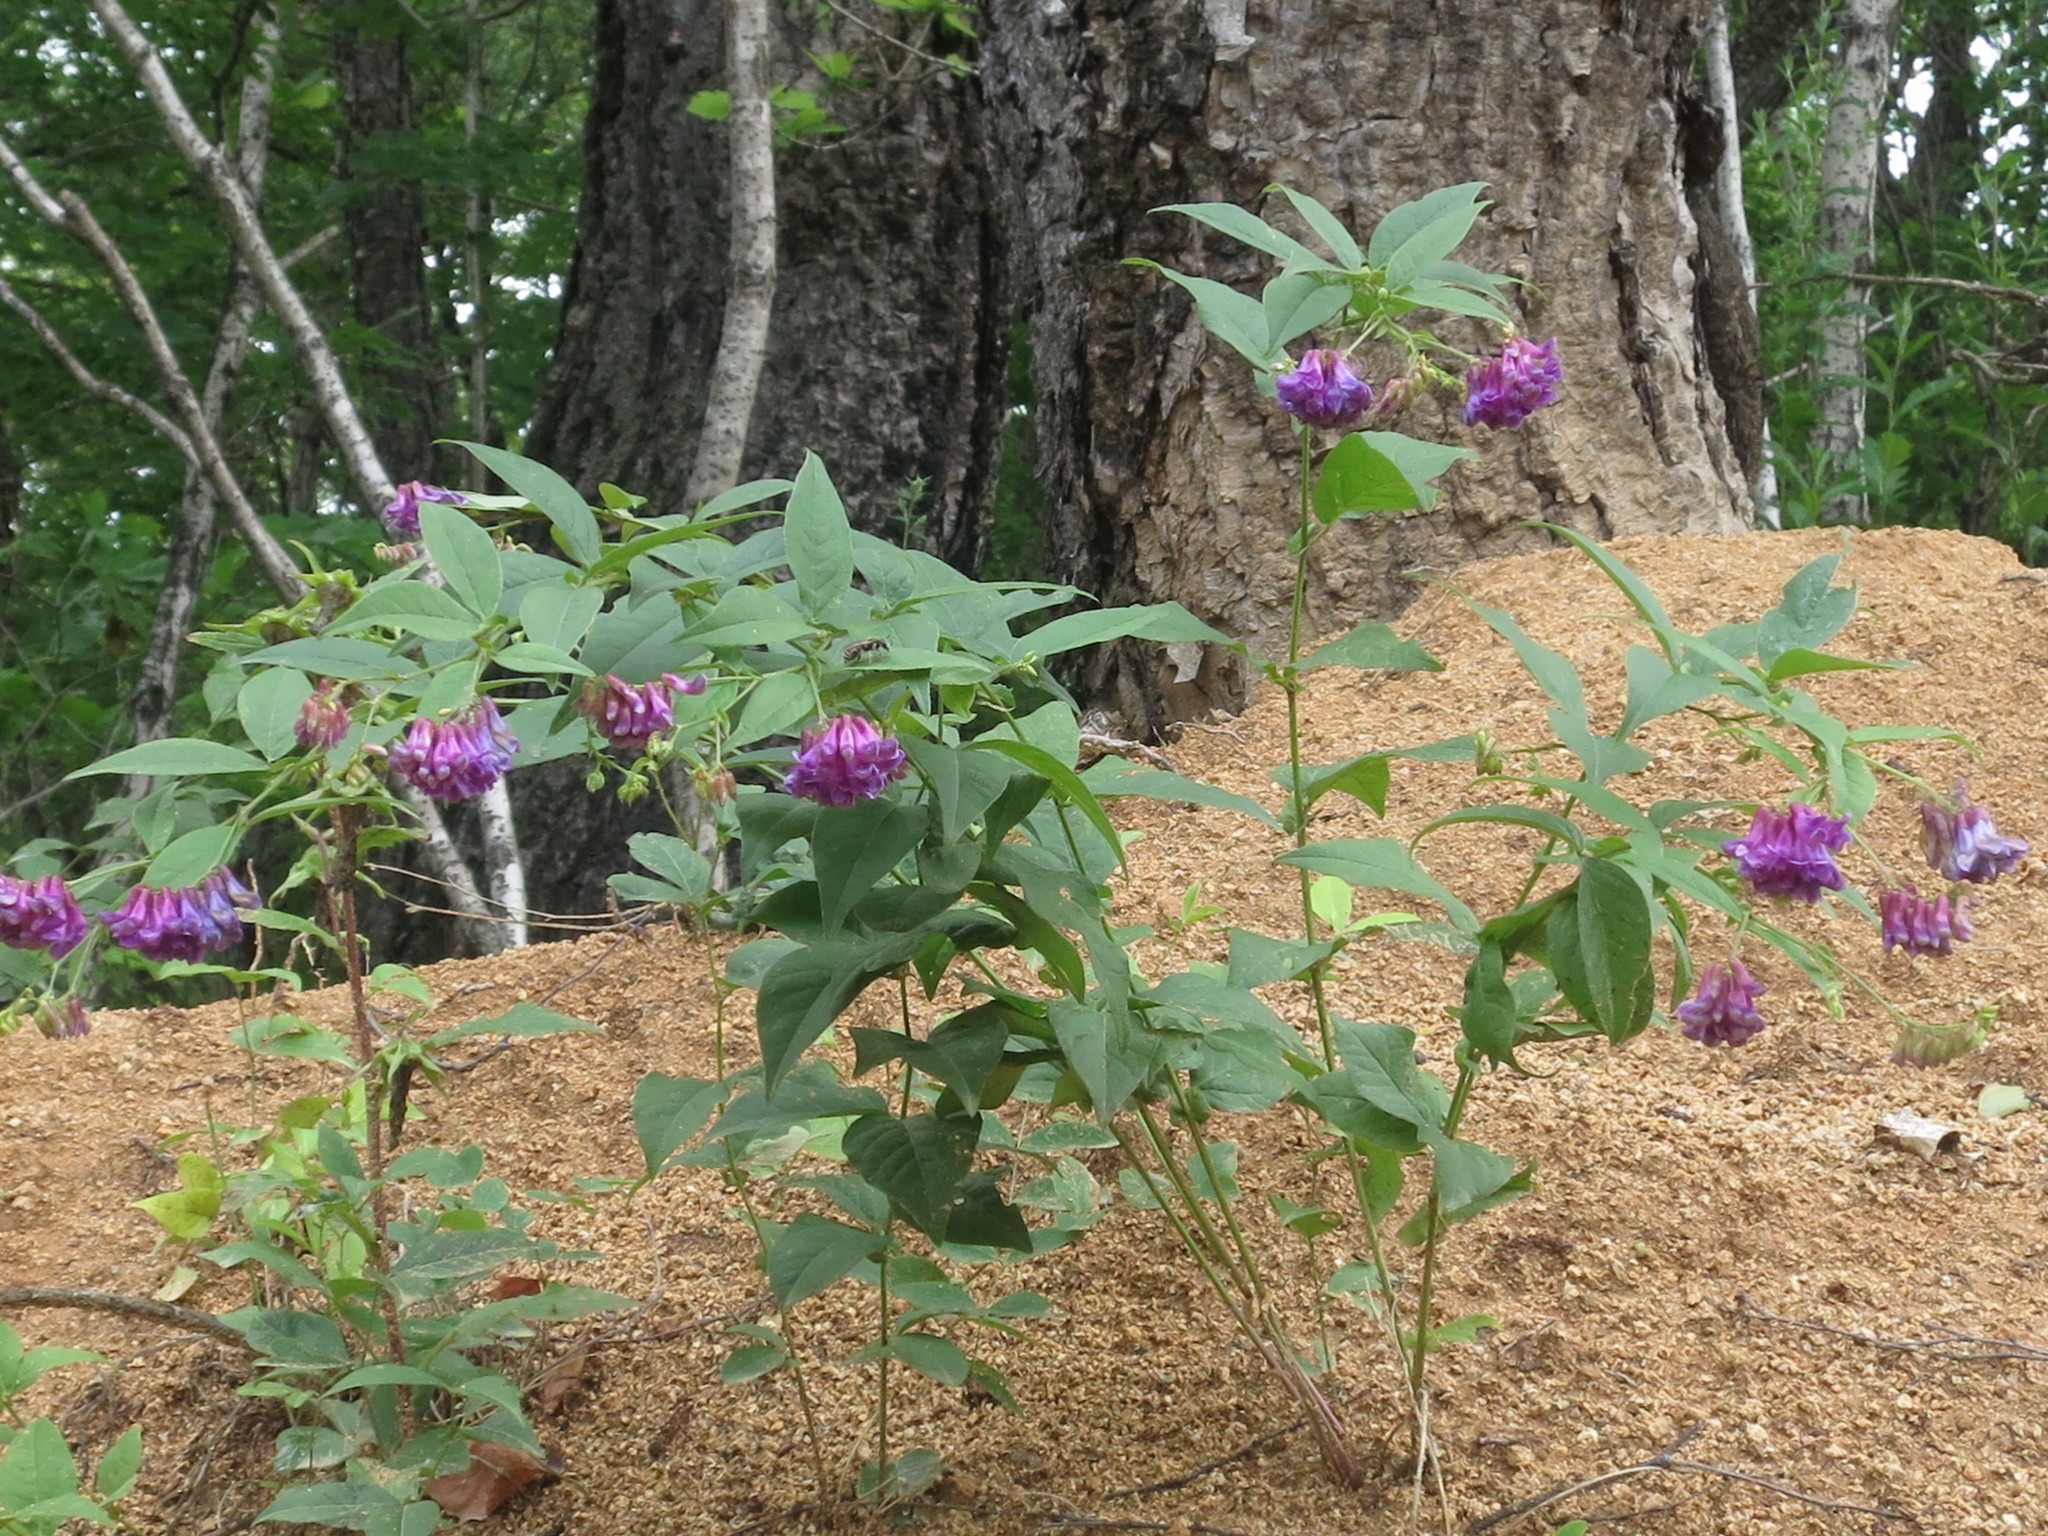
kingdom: Plantae
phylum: Tracheophyta
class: Magnoliopsida
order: Fabales
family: Fabaceae
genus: Vicia
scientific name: Vicia unijuga
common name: Two-leaf vetch
